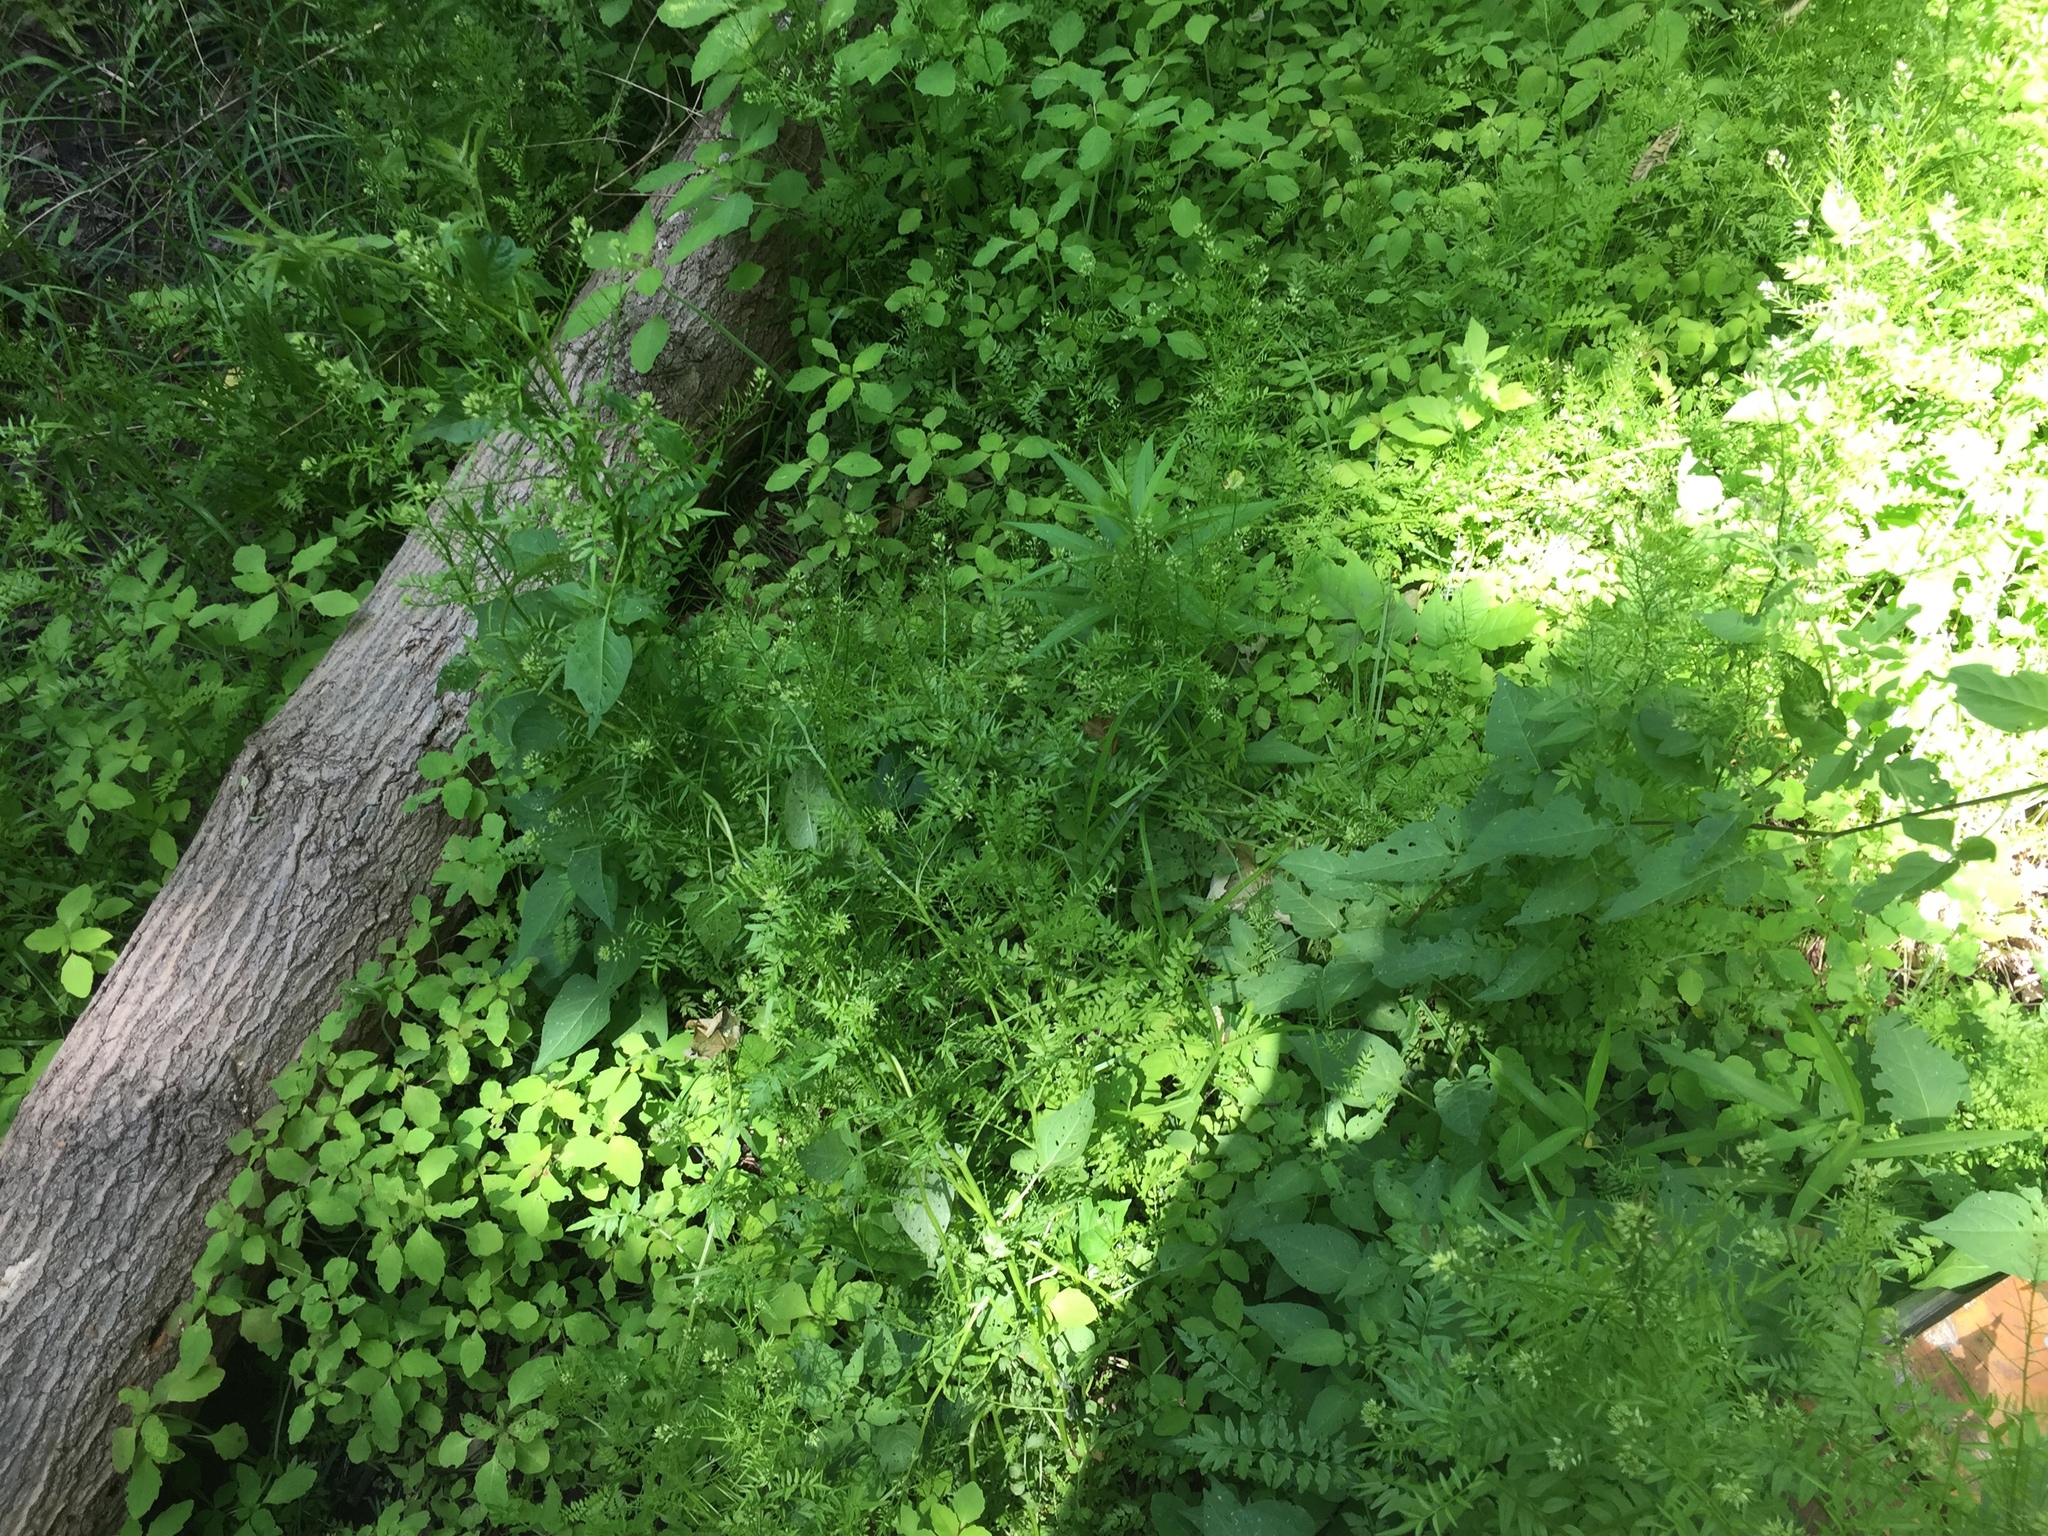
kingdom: Plantae
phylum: Tracheophyta
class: Magnoliopsida
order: Brassicales
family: Brassicaceae
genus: Cardamine
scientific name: Cardamine impatiens
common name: Narrow-leaved bitter-cress
